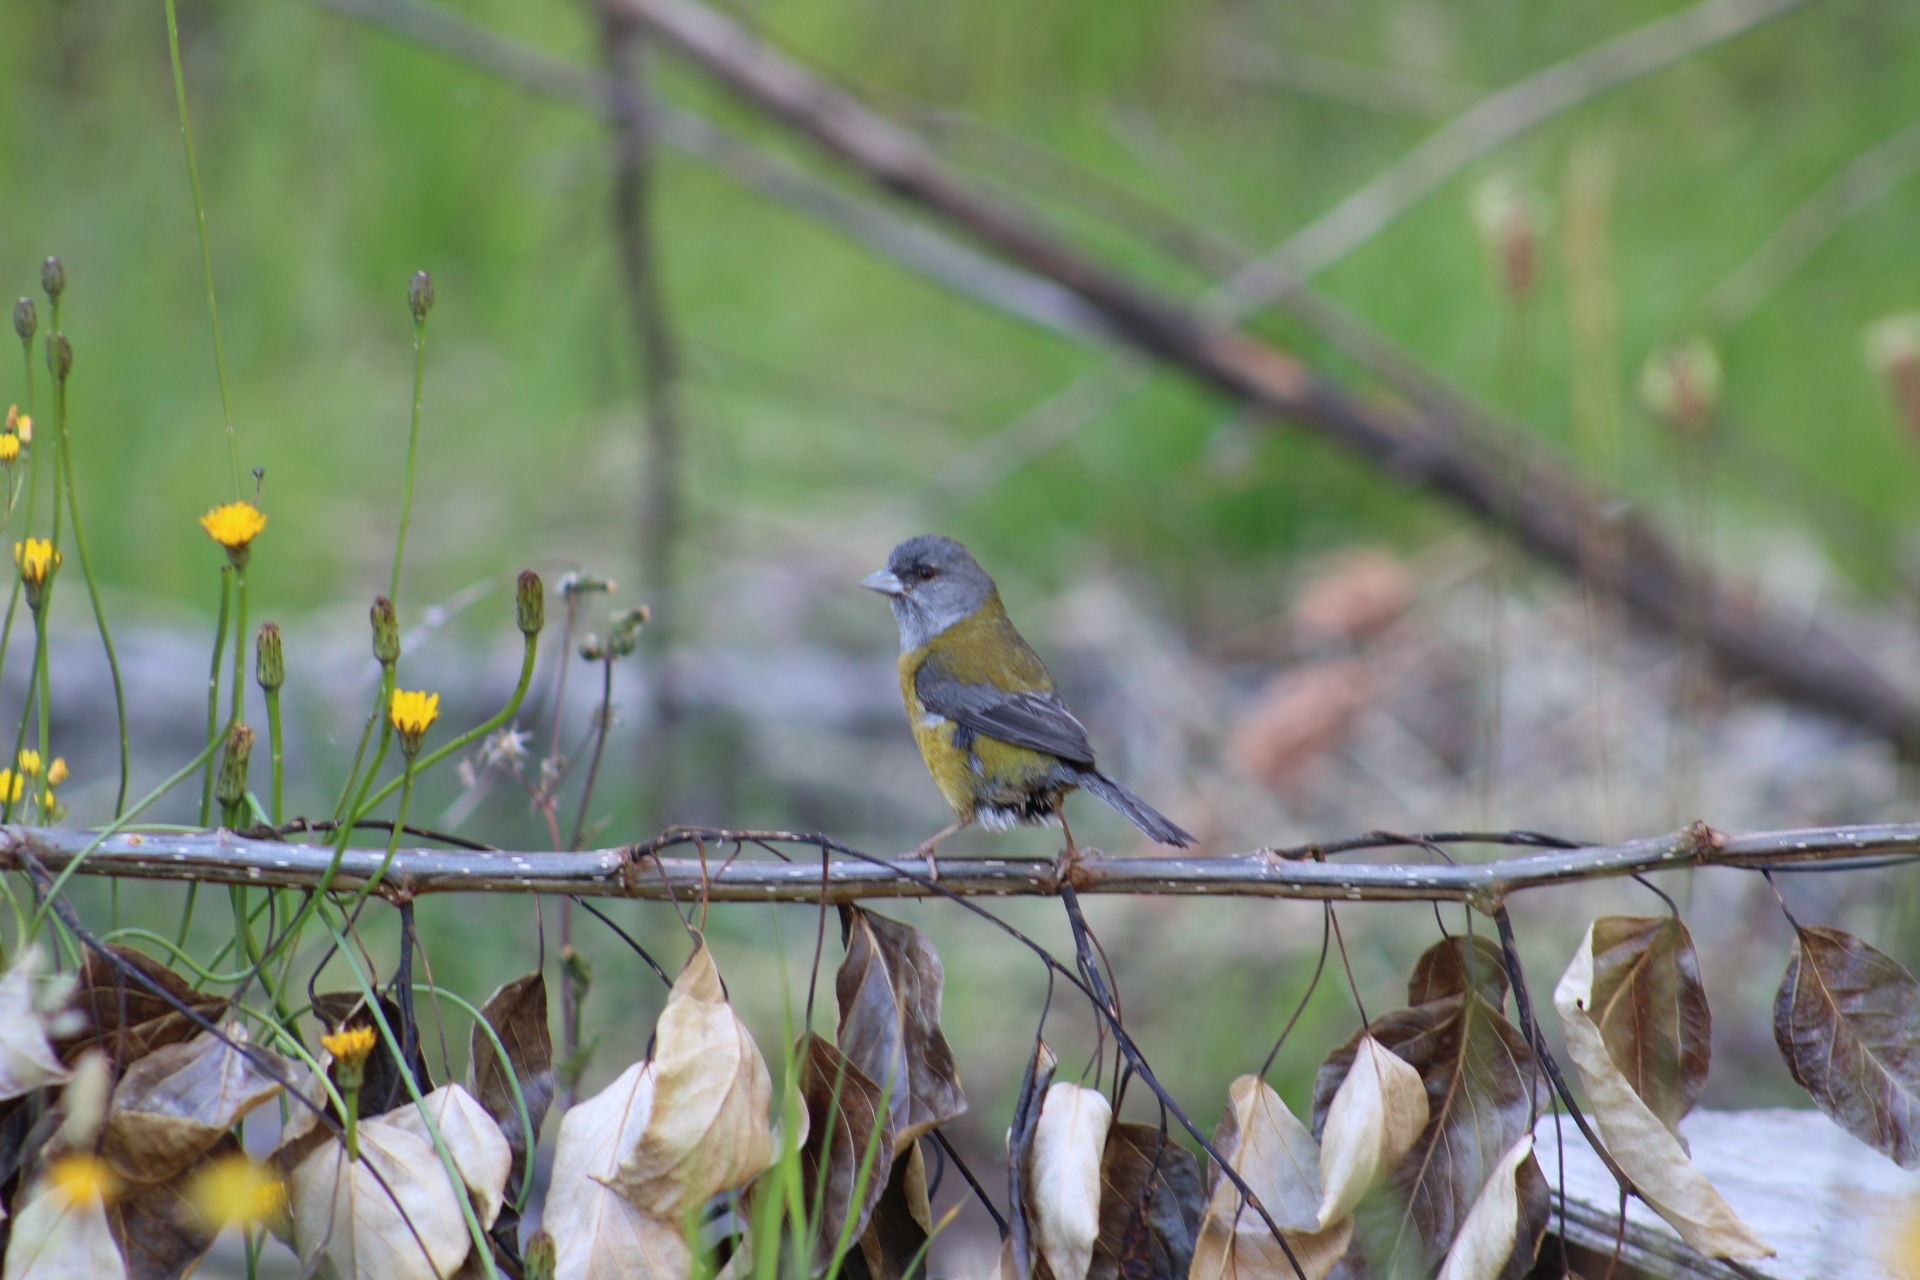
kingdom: Animalia
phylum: Chordata
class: Aves
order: Passeriformes
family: Thraupidae
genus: Phrygilus
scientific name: Phrygilus patagonicus
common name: Patagonian sierra finch
